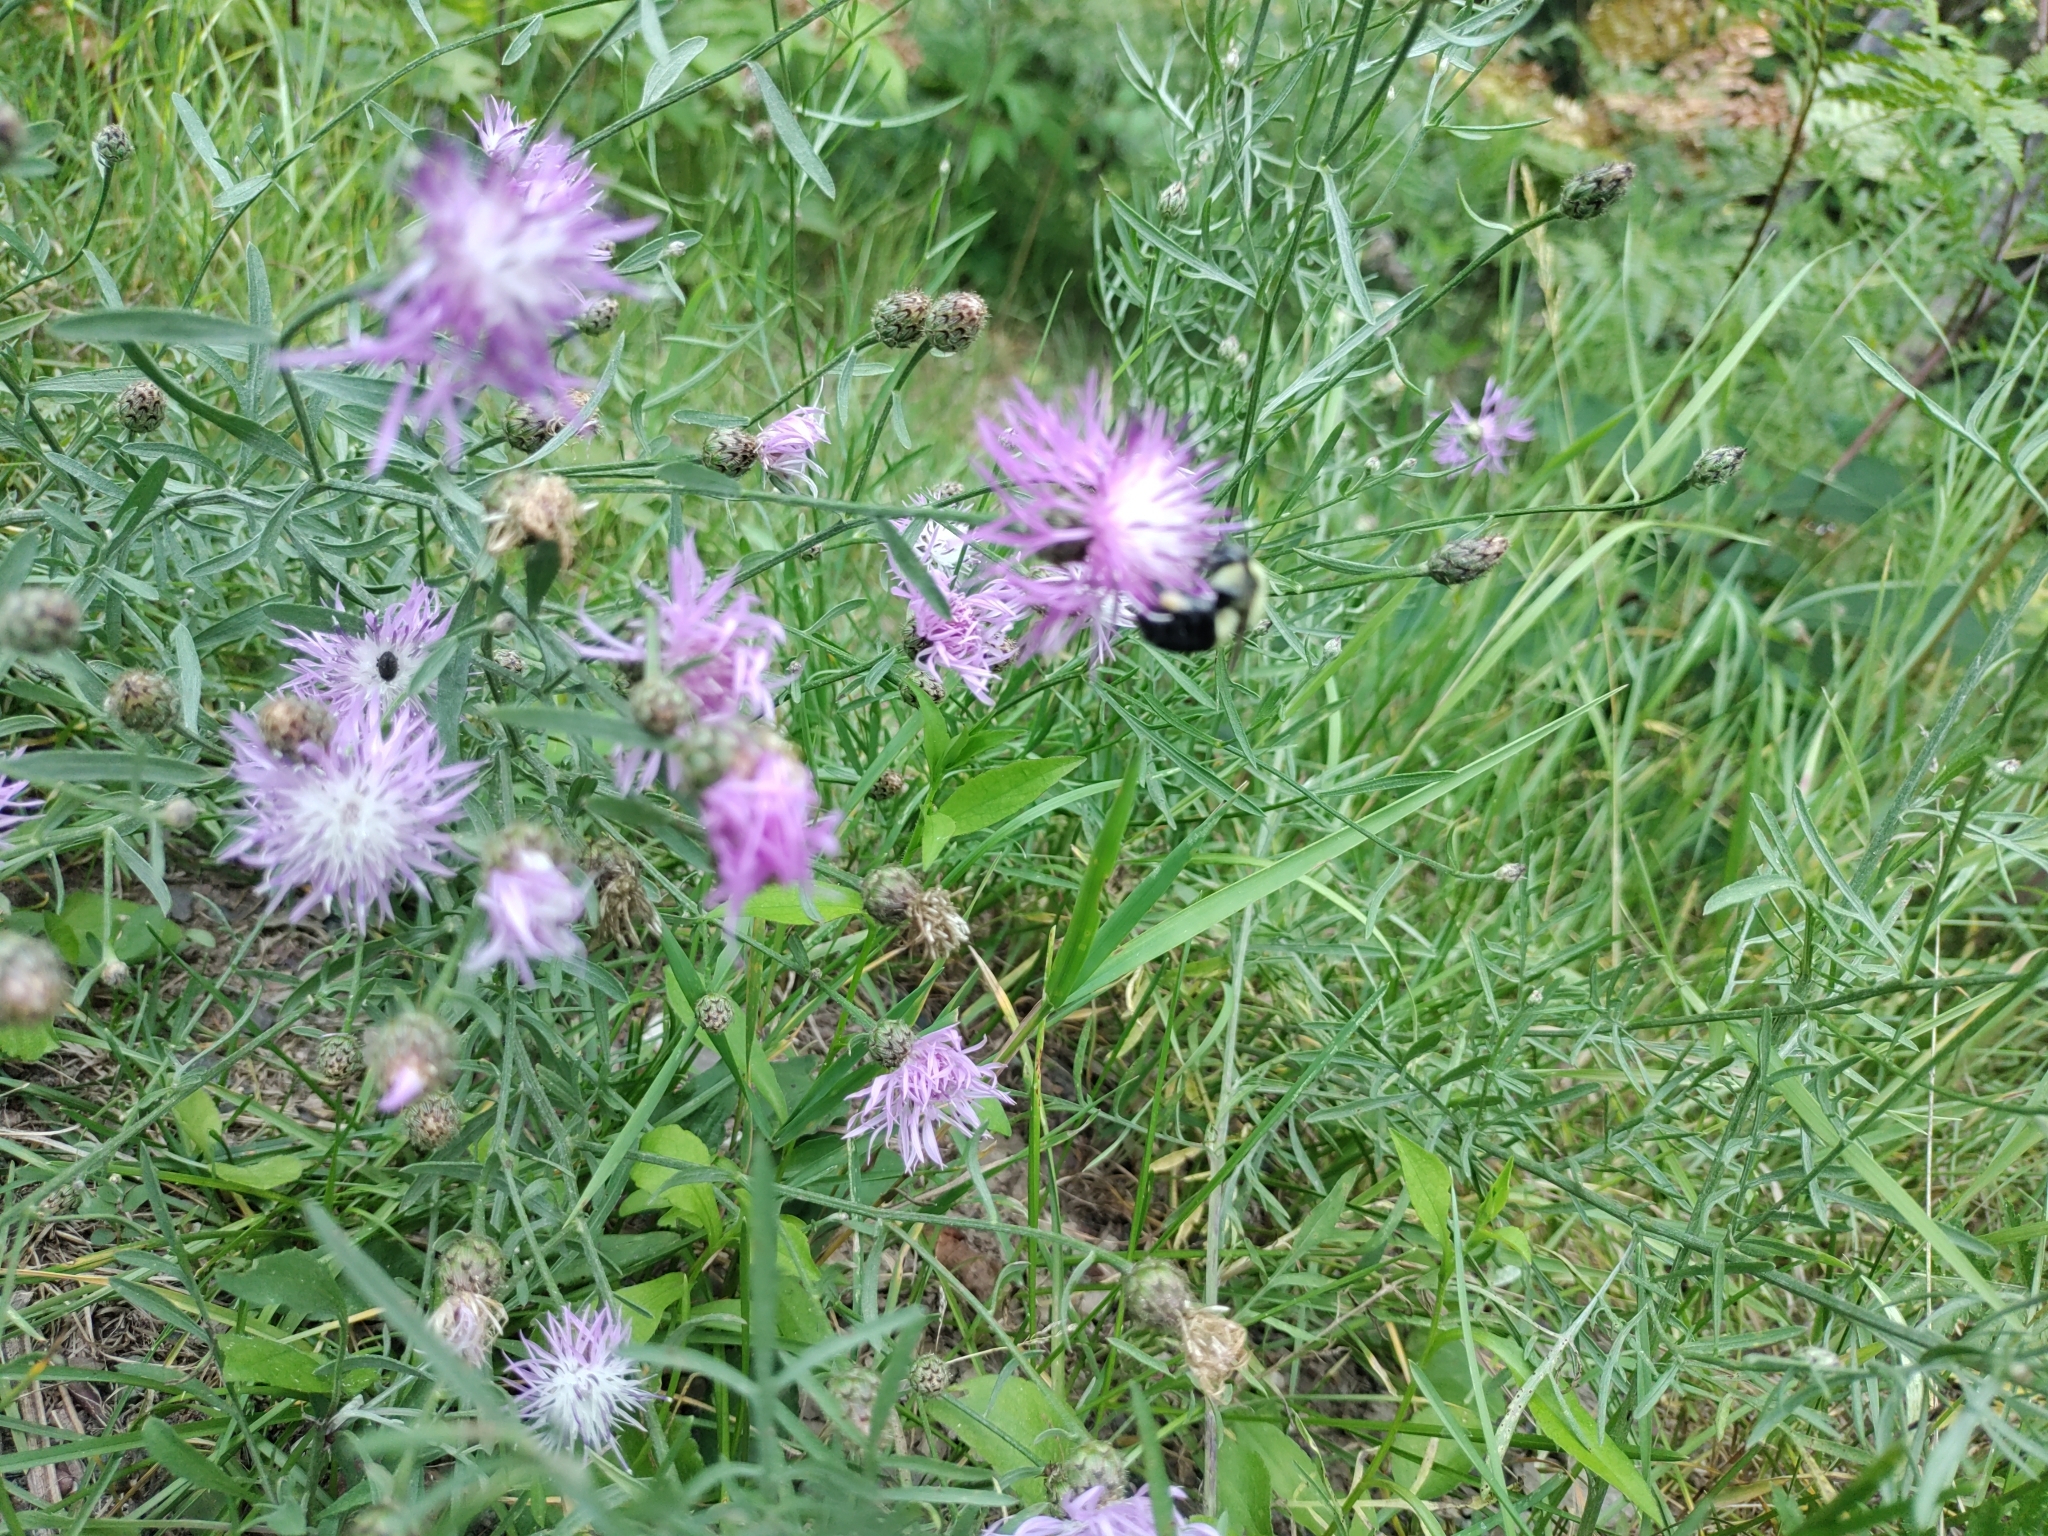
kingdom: Plantae
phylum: Tracheophyta
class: Magnoliopsida
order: Asterales
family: Asteraceae
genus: Centaurea
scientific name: Centaurea stoebe
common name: Spotted knapweed
